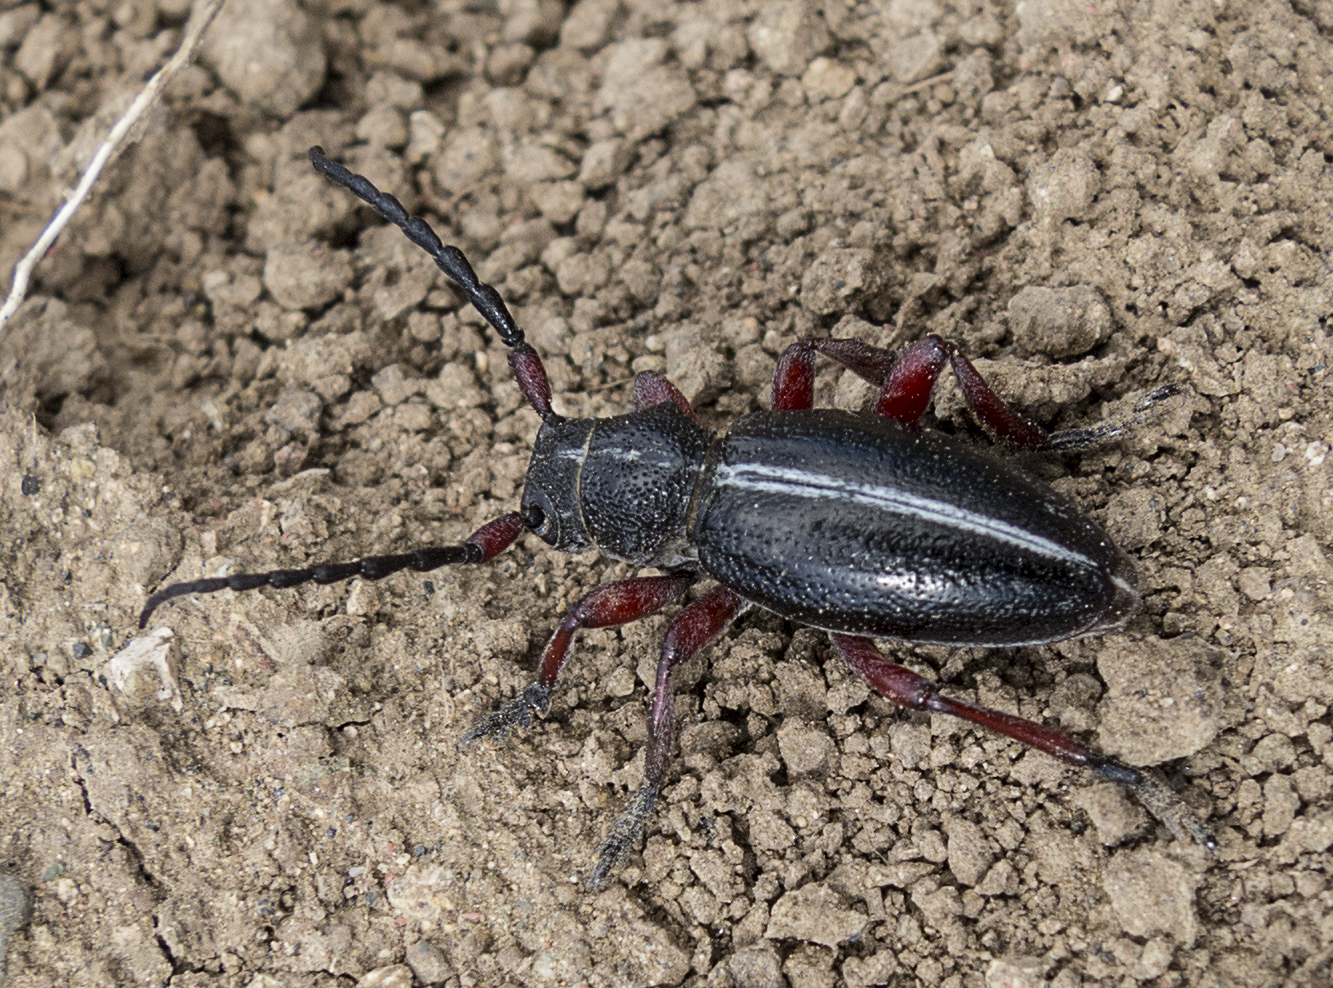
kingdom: Animalia
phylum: Arthropoda
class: Insecta
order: Coleoptera
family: Cerambycidae
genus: Dorcadion
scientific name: Dorcadion pedestre
